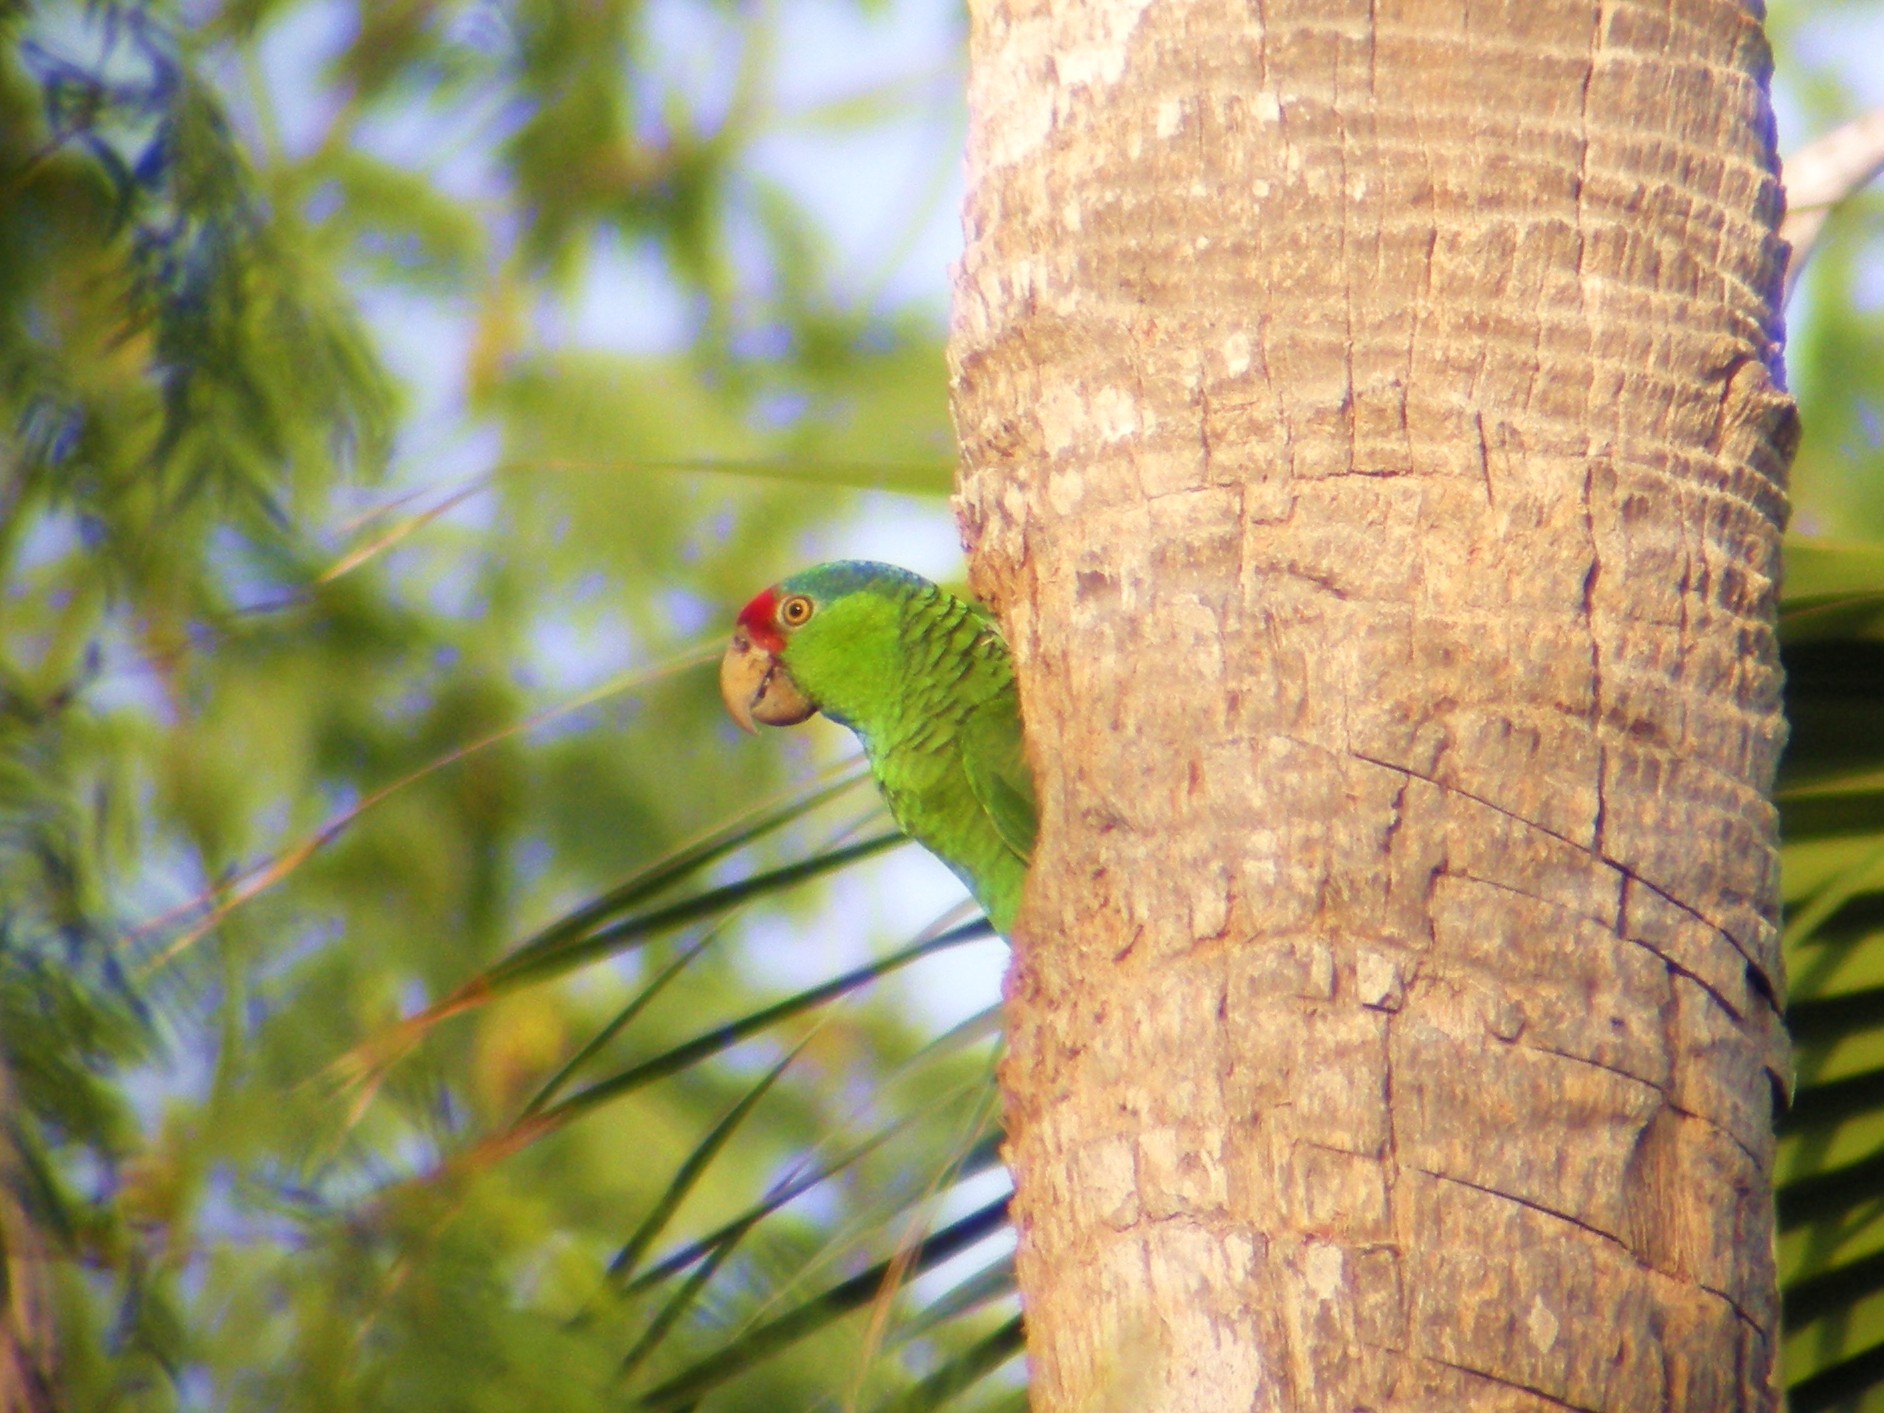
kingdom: Animalia
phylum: Chordata
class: Aves
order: Psittaciformes
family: Psittacidae
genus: Amazona
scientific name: Amazona viridigenalis
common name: Red-crowned amazon
